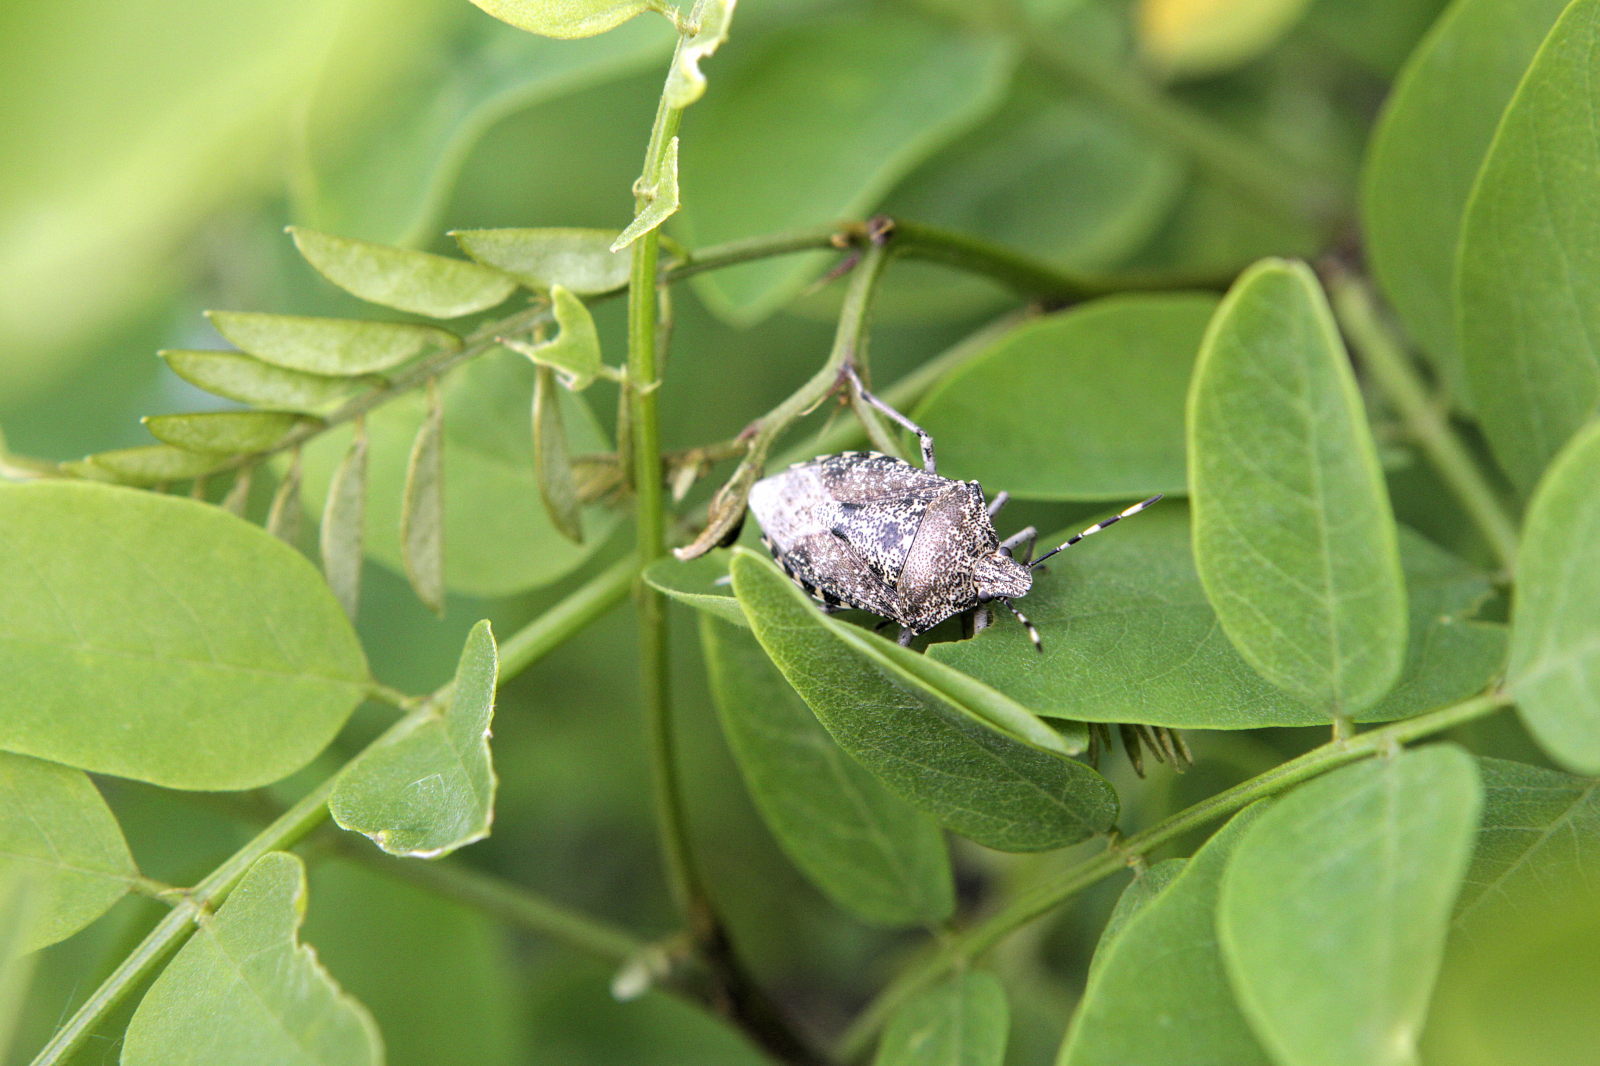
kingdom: Animalia
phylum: Arthropoda
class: Insecta
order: Hemiptera
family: Pentatomidae
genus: Rhaphigaster
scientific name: Rhaphigaster nebulosa
